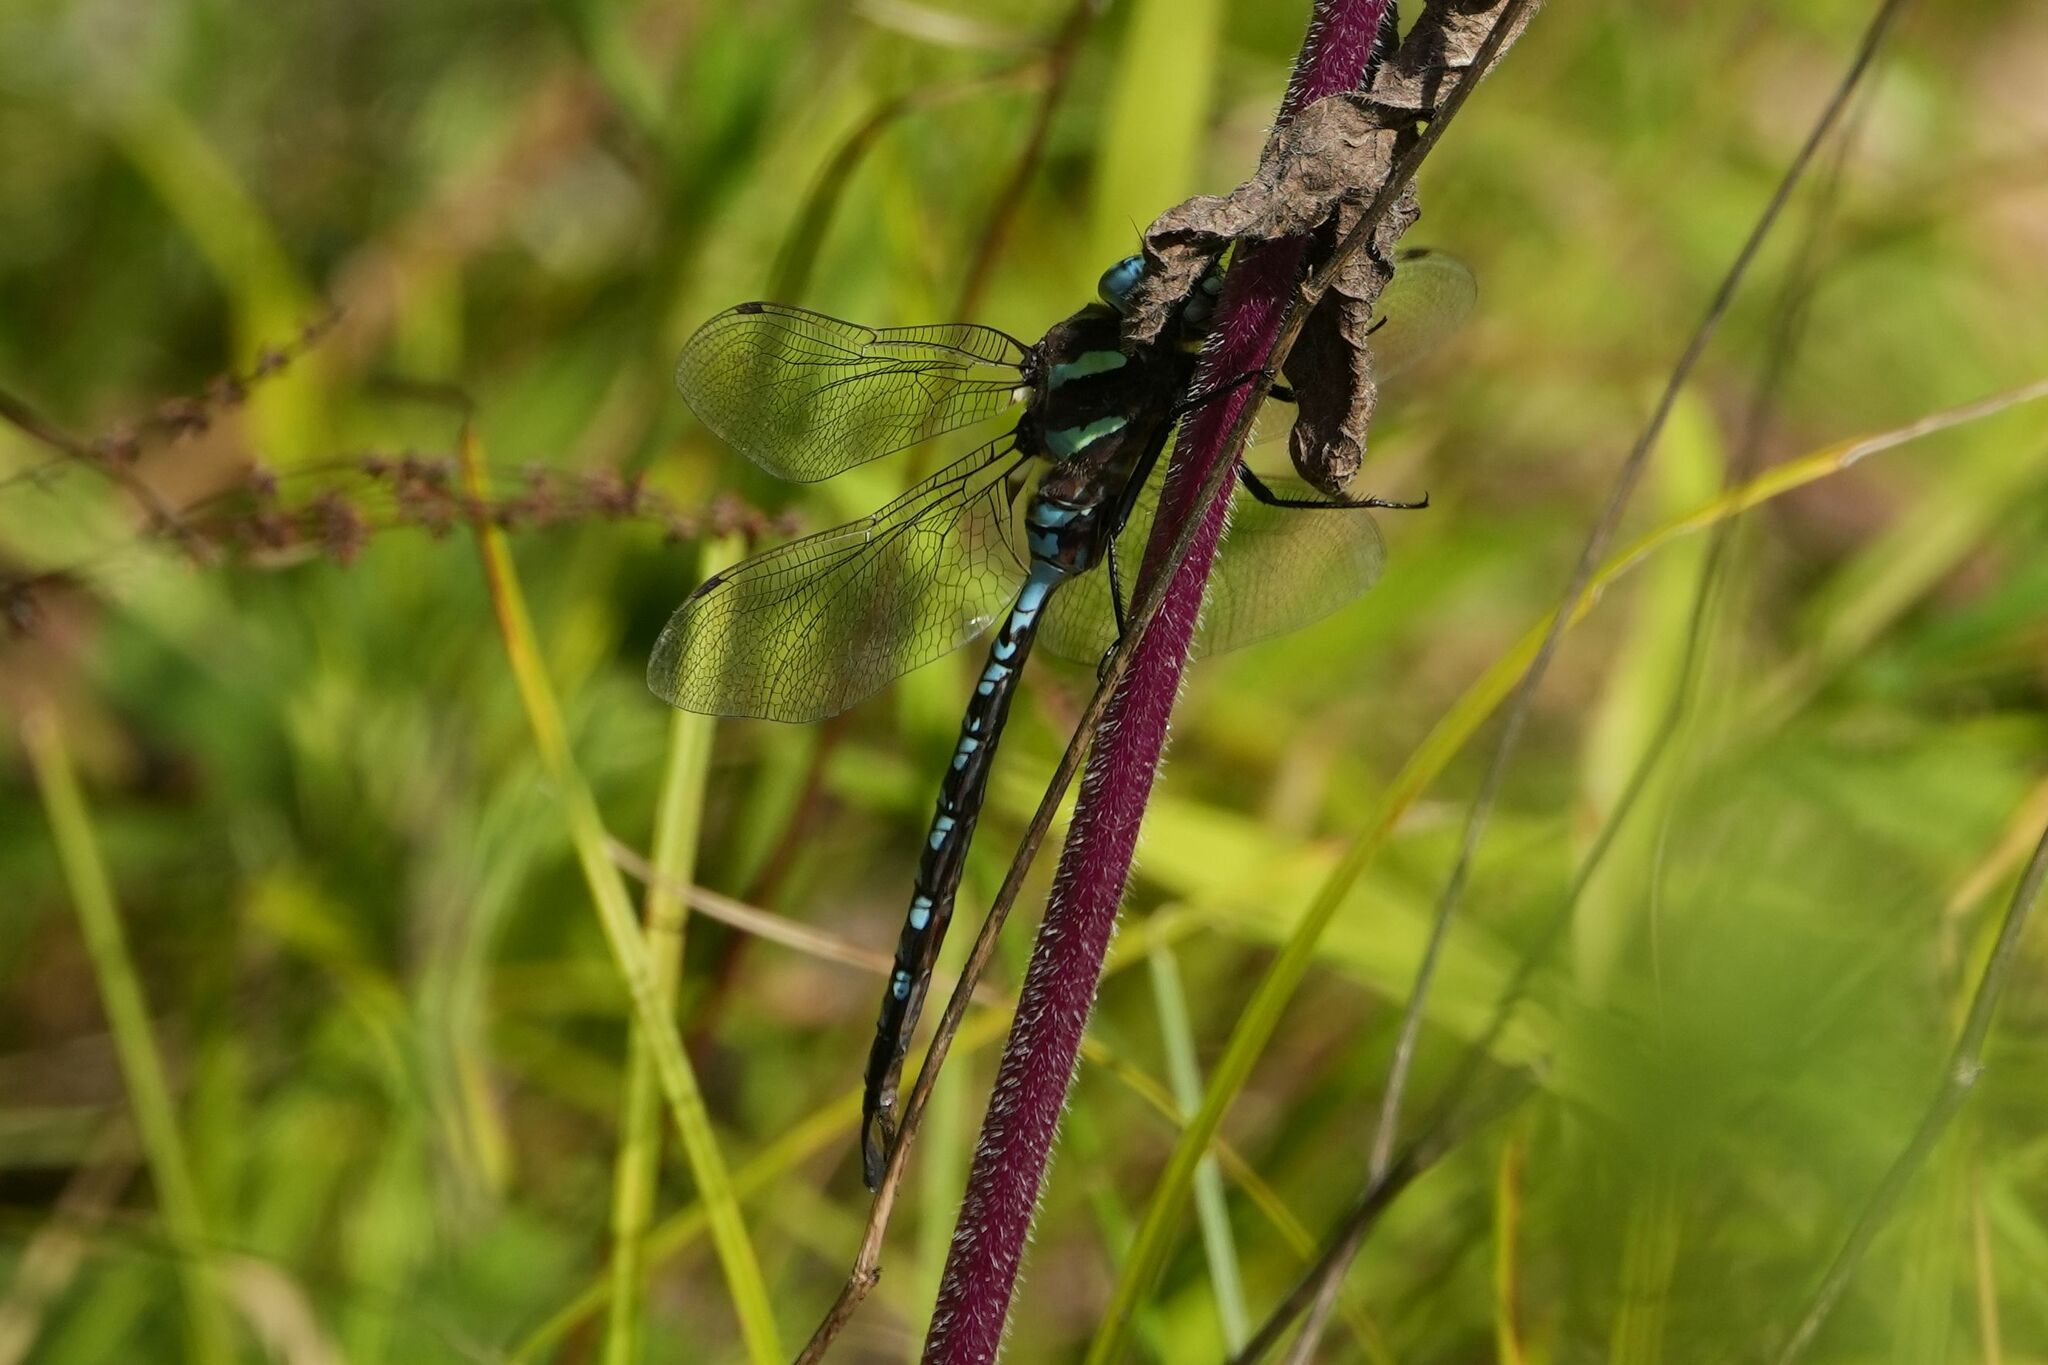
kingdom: Animalia
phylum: Arthropoda
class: Insecta
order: Odonata
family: Aeshnidae
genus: Aeshna
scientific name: Aeshna constricta
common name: Lance-tipped darner
